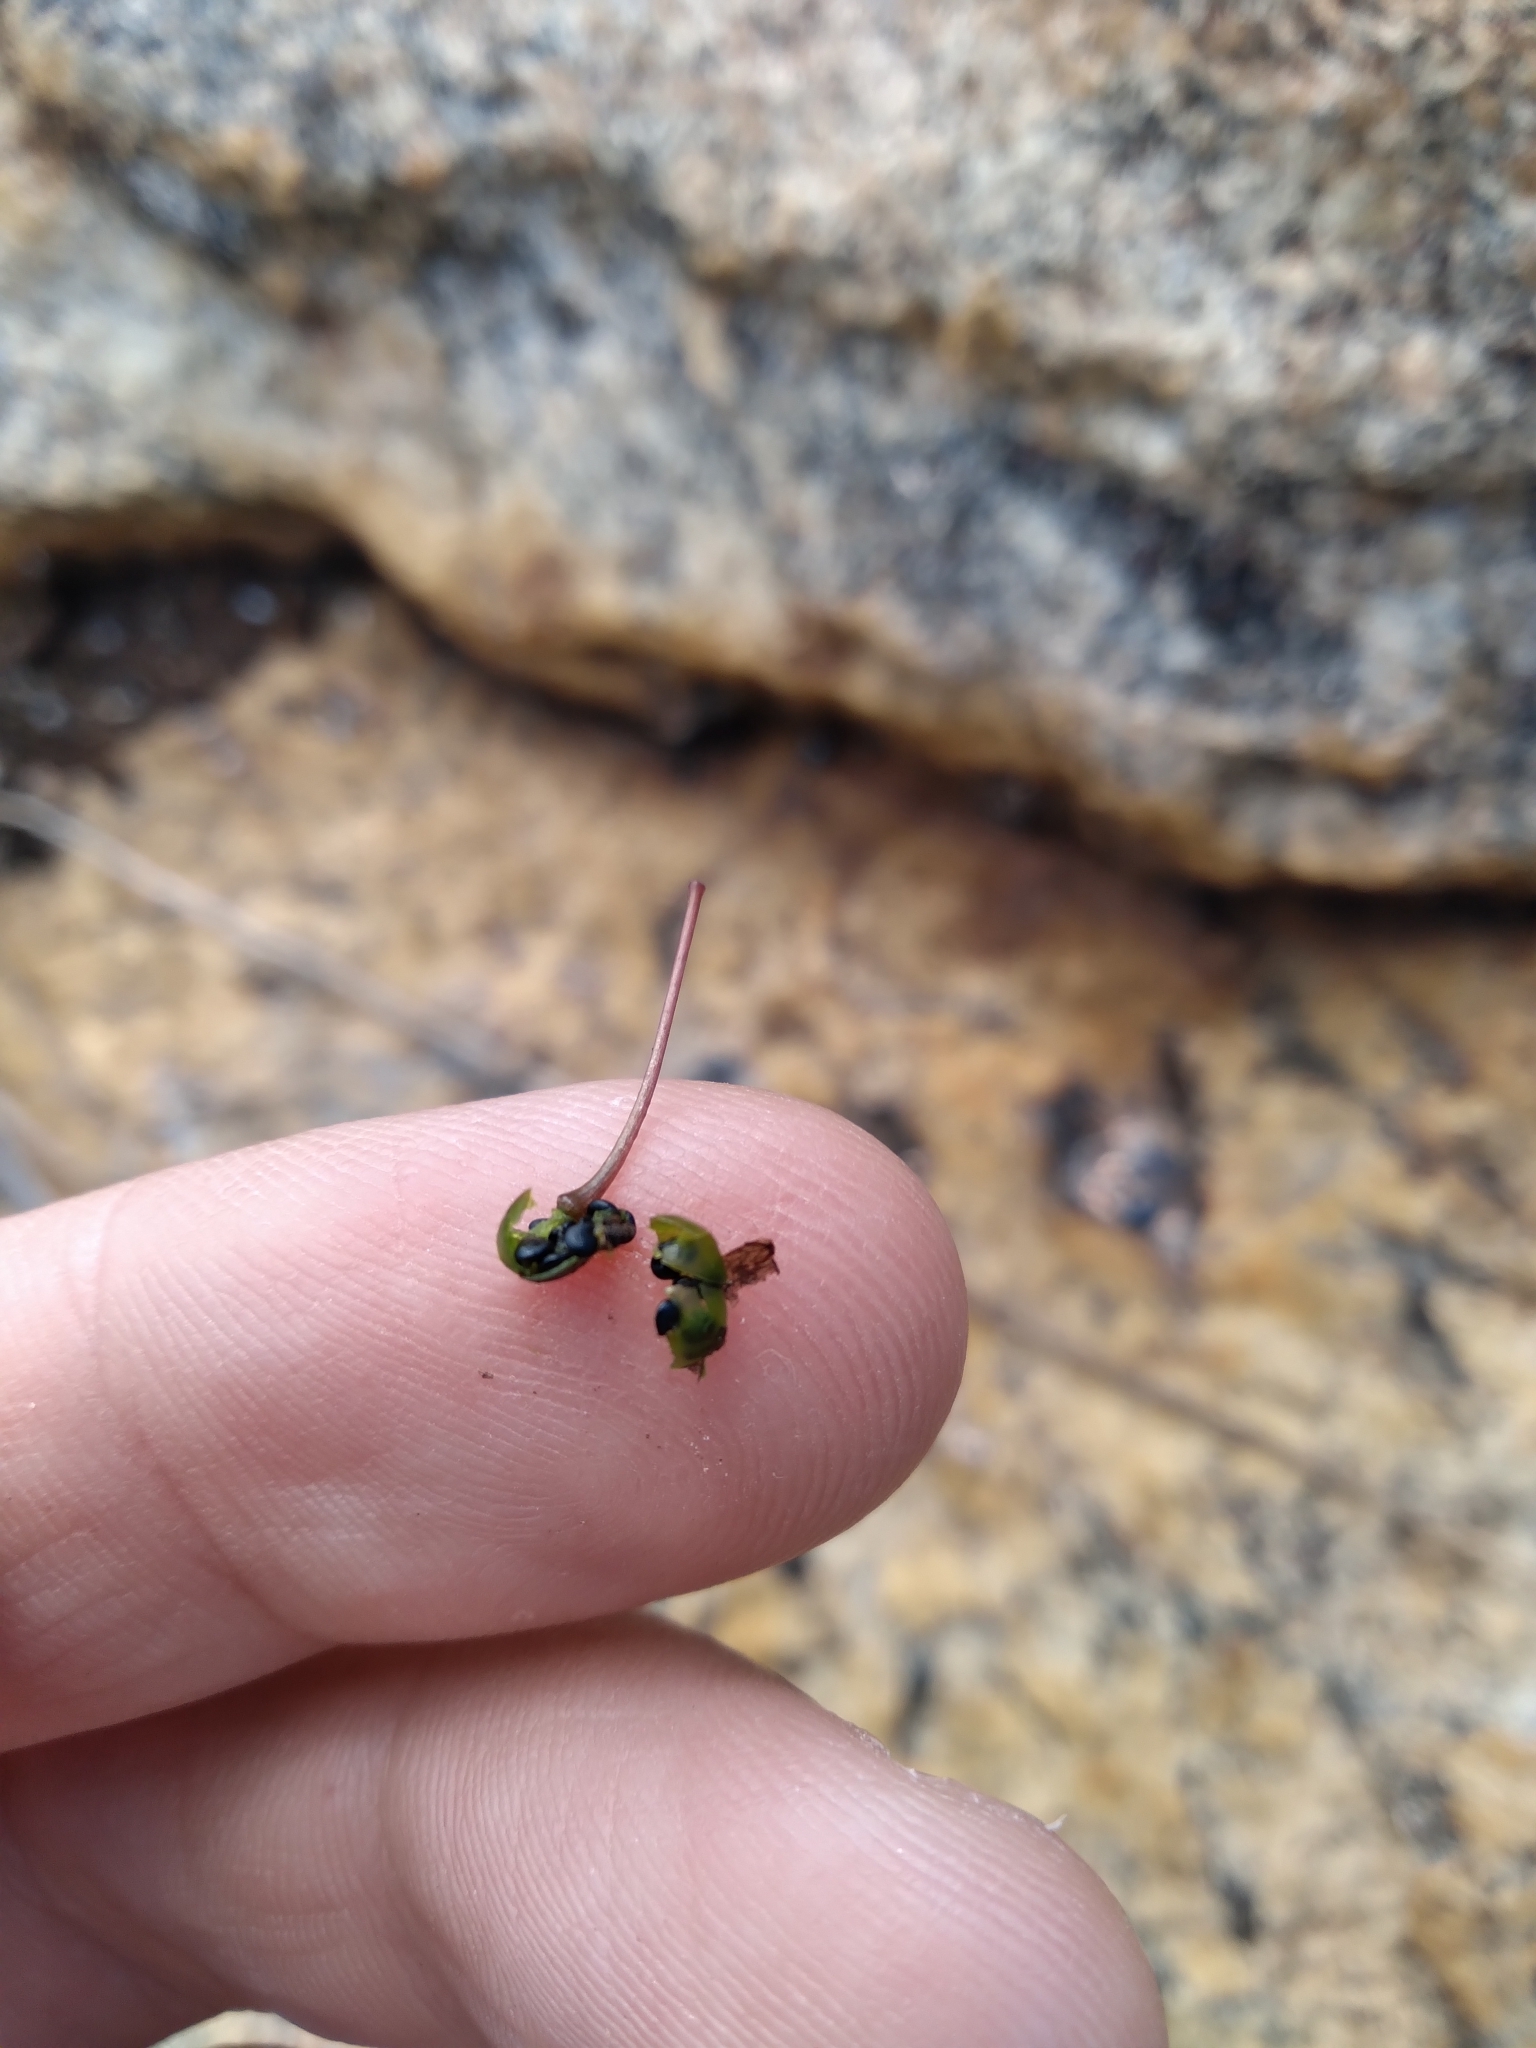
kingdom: Plantae
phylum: Tracheophyta
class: Magnoliopsida
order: Caryophyllales
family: Talinaceae
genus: Talinum
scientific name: Talinum paniculatum
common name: Jewels of opar
